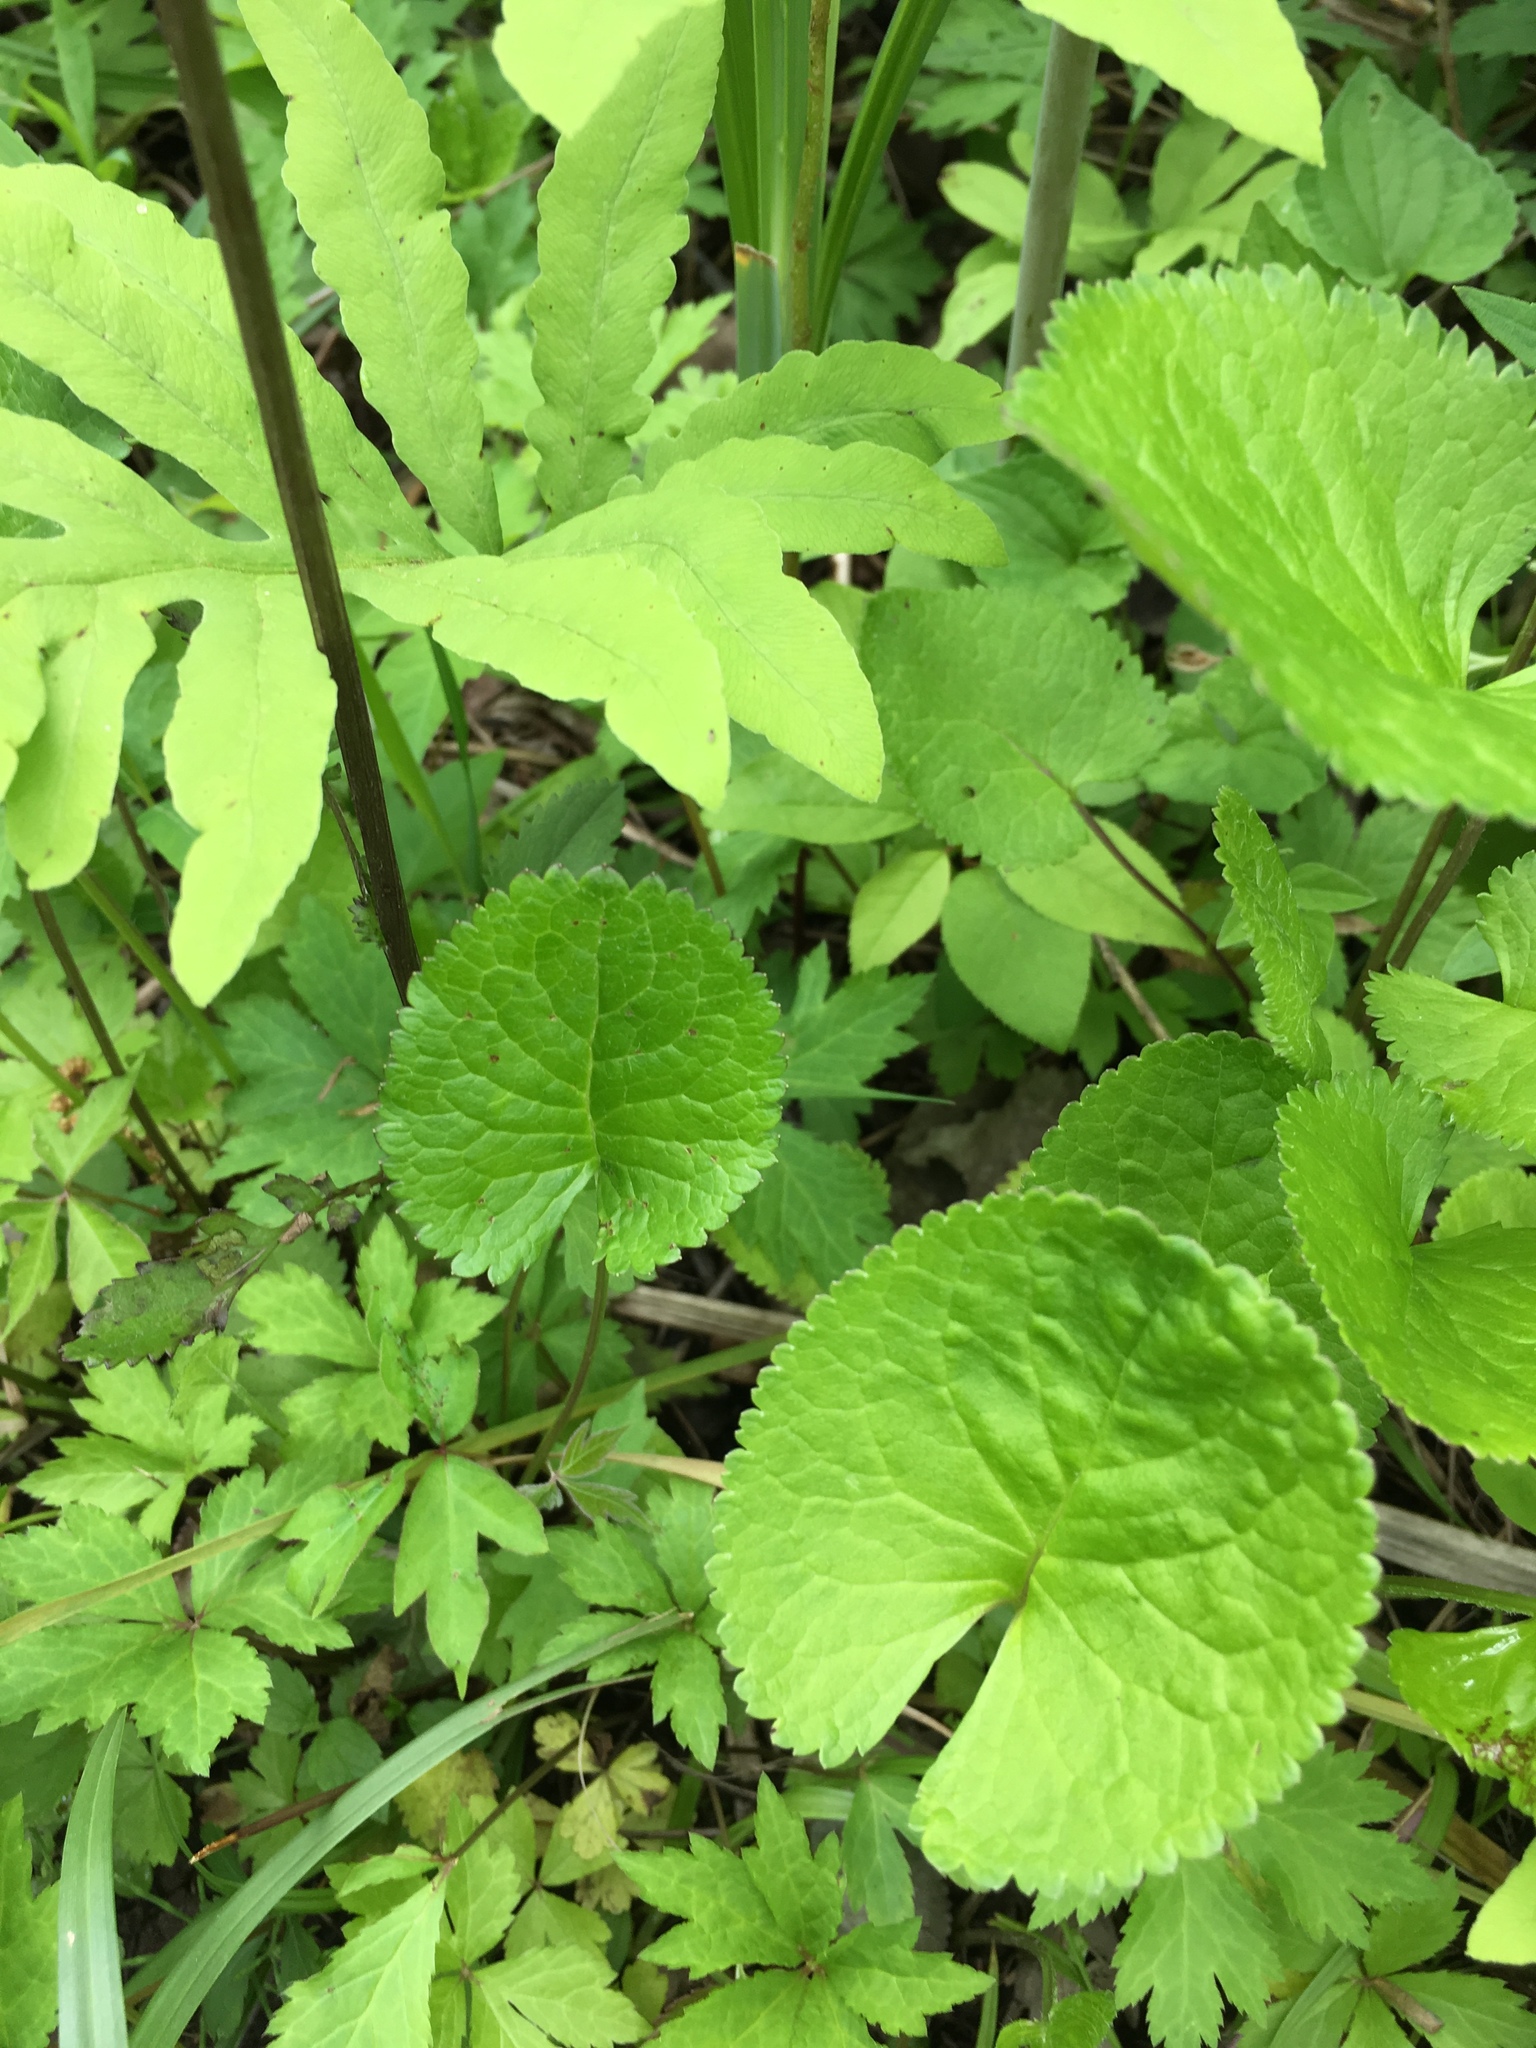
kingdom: Plantae
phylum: Tracheophyta
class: Magnoliopsida
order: Asterales
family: Asteraceae
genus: Packera
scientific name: Packera aurea
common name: Golden groundsel
